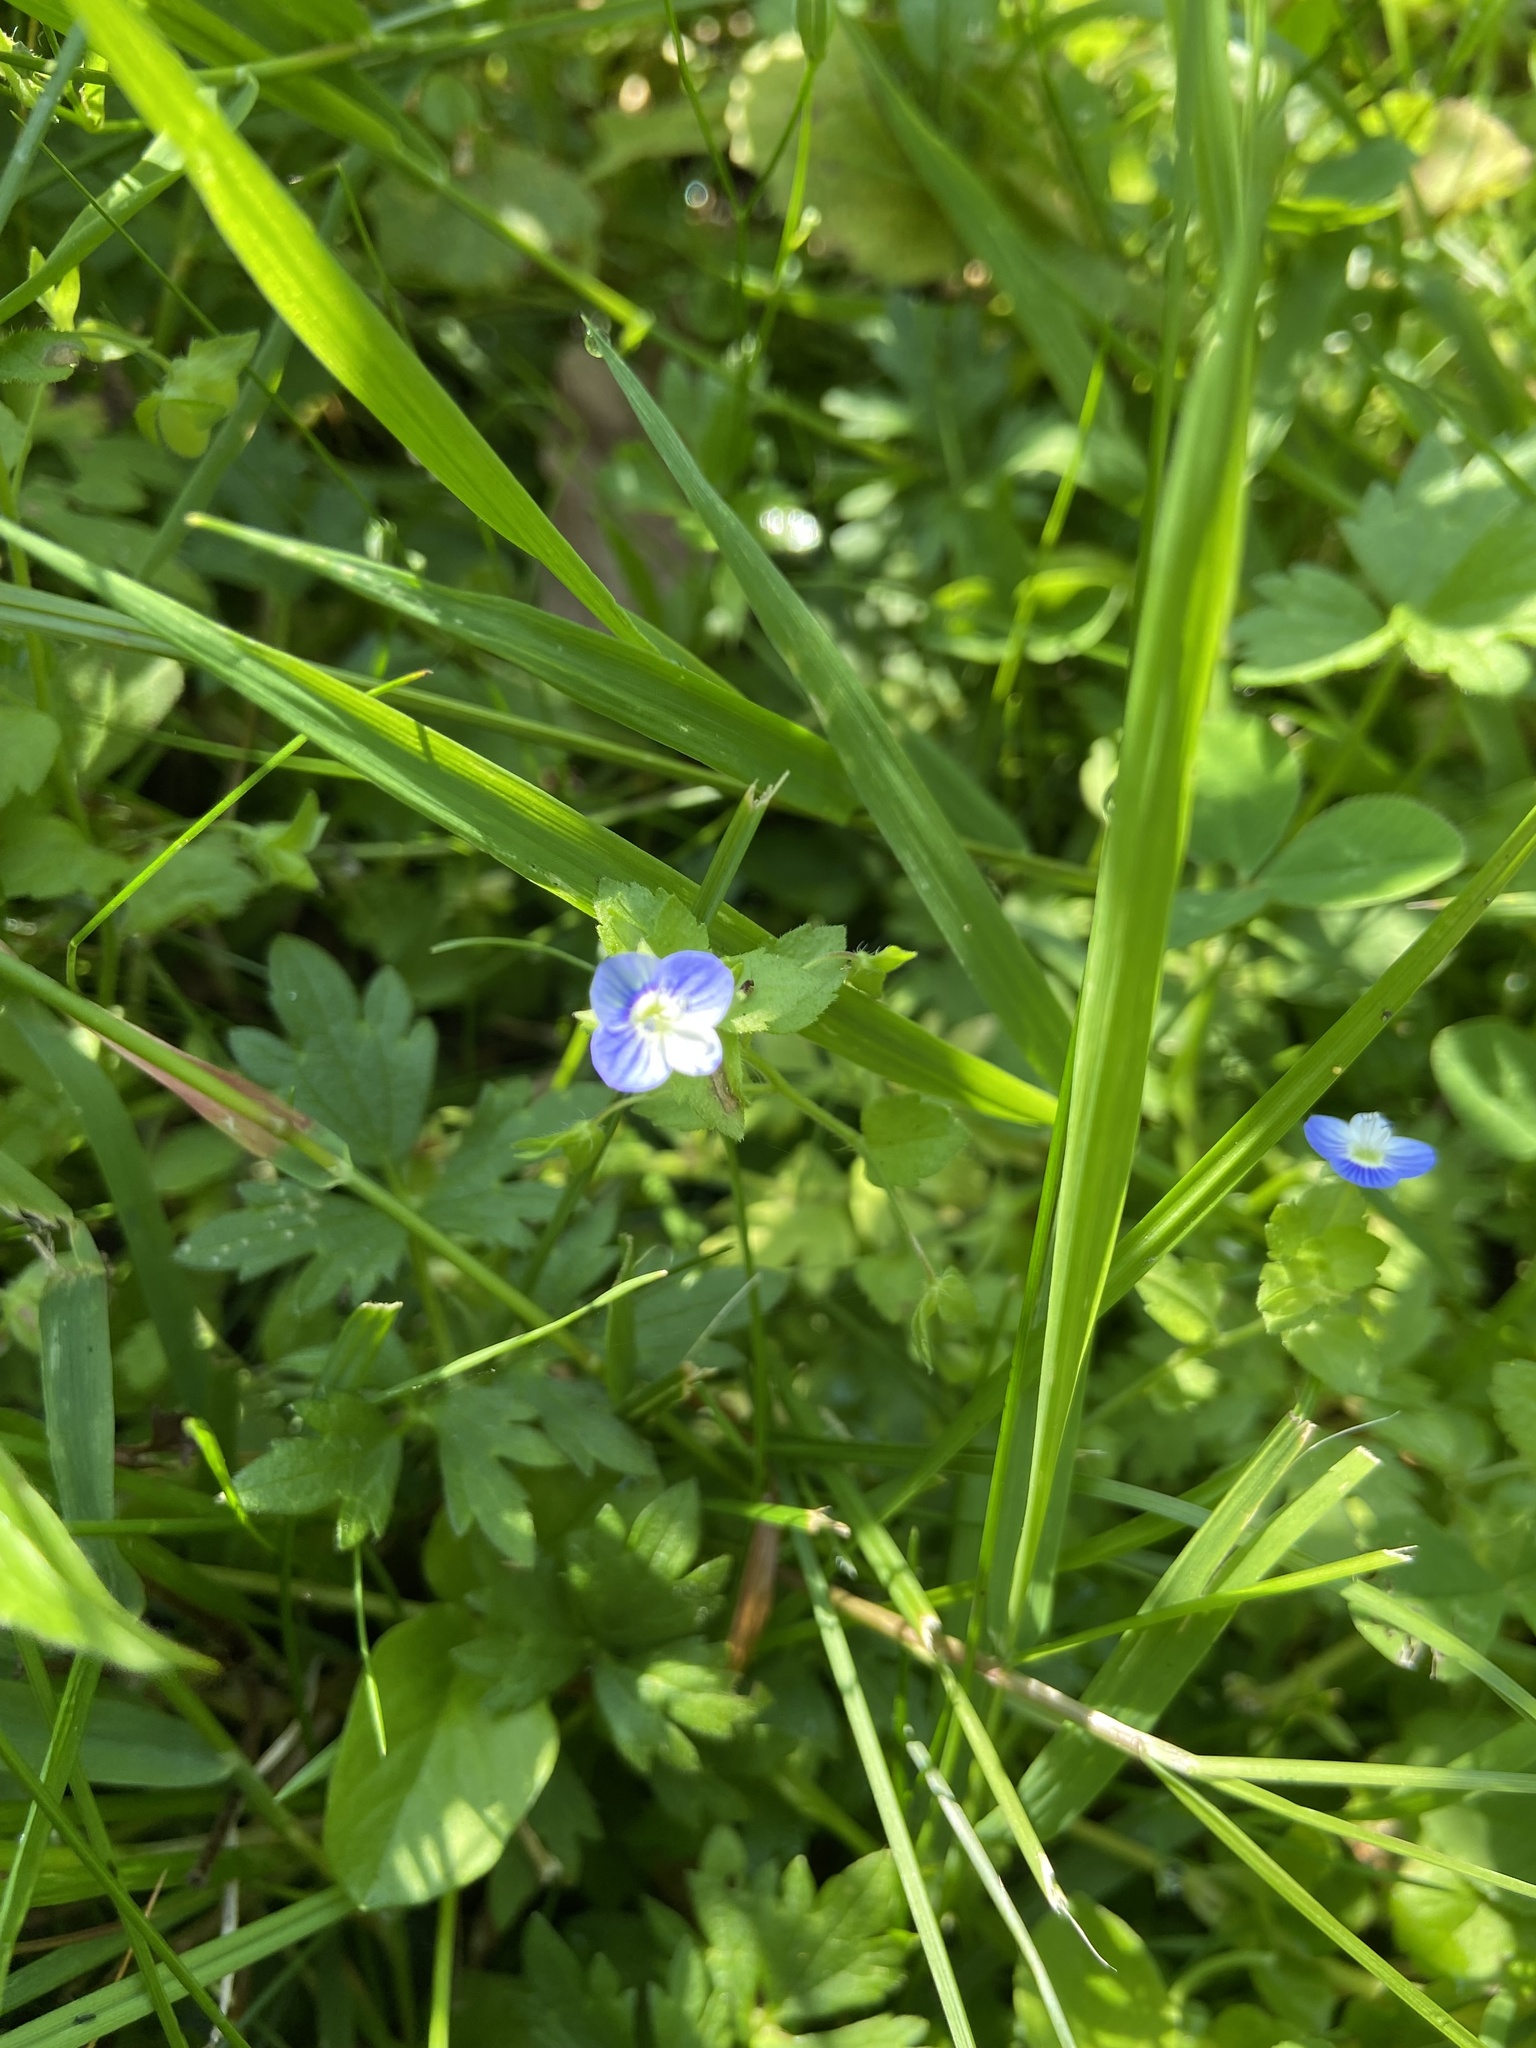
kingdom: Plantae
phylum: Tracheophyta
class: Magnoliopsida
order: Lamiales
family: Plantaginaceae
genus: Veronica
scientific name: Veronica persica
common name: Common field-speedwell
